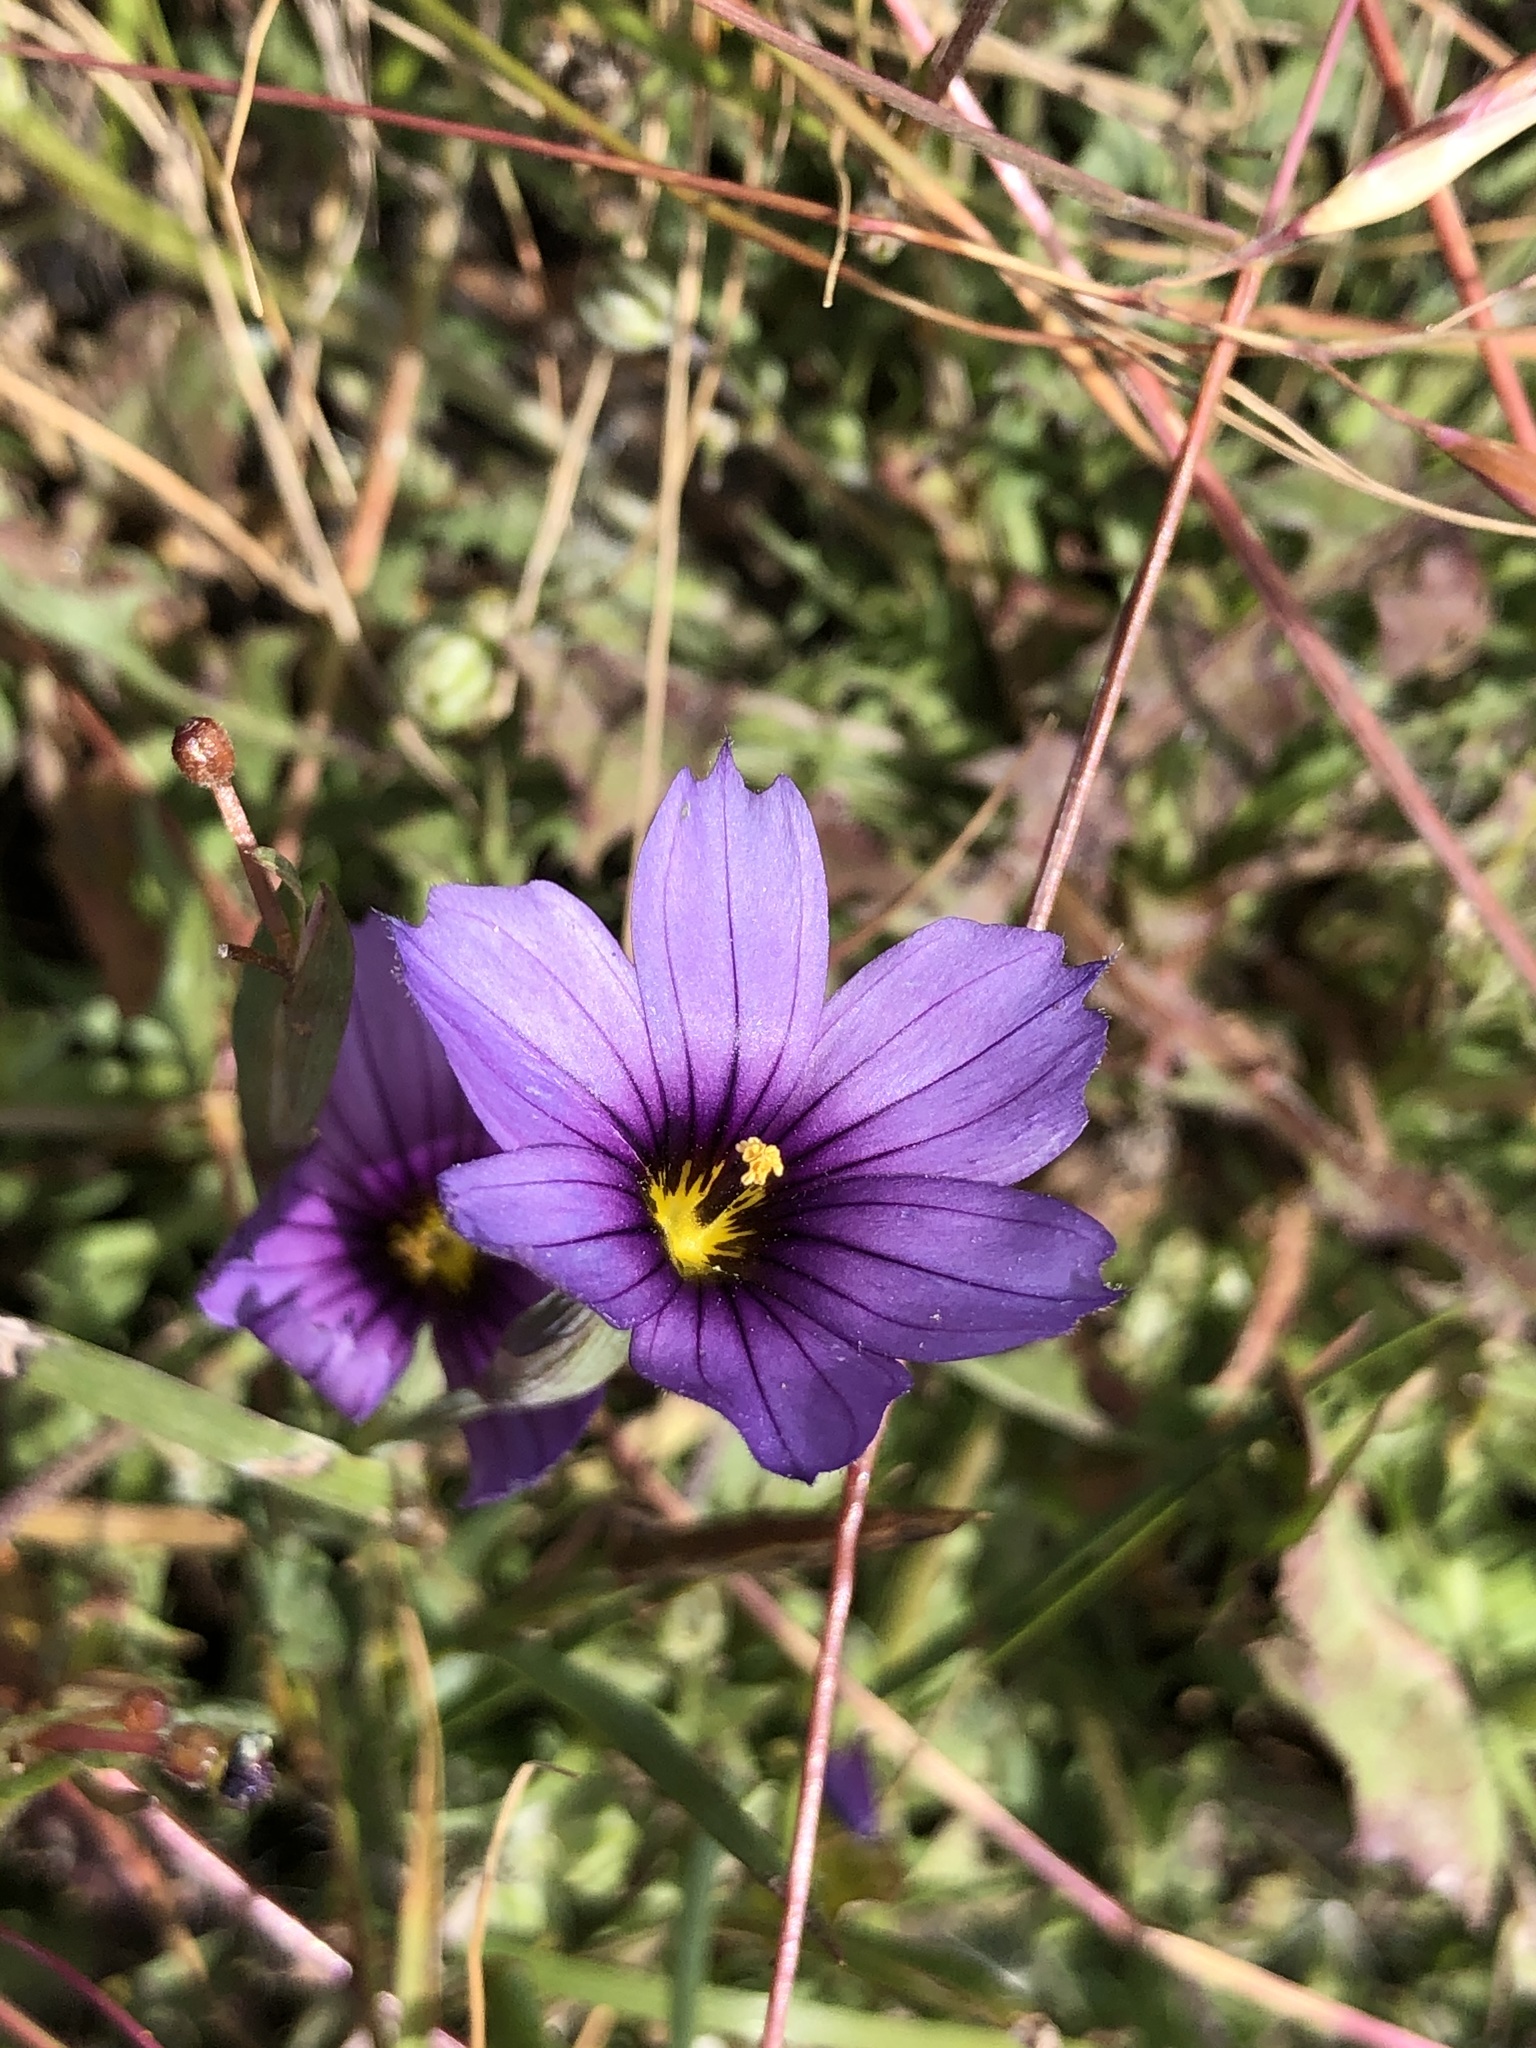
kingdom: Plantae
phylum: Tracheophyta
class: Liliopsida
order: Asparagales
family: Iridaceae
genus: Sisyrinchium
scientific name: Sisyrinchium bellum
